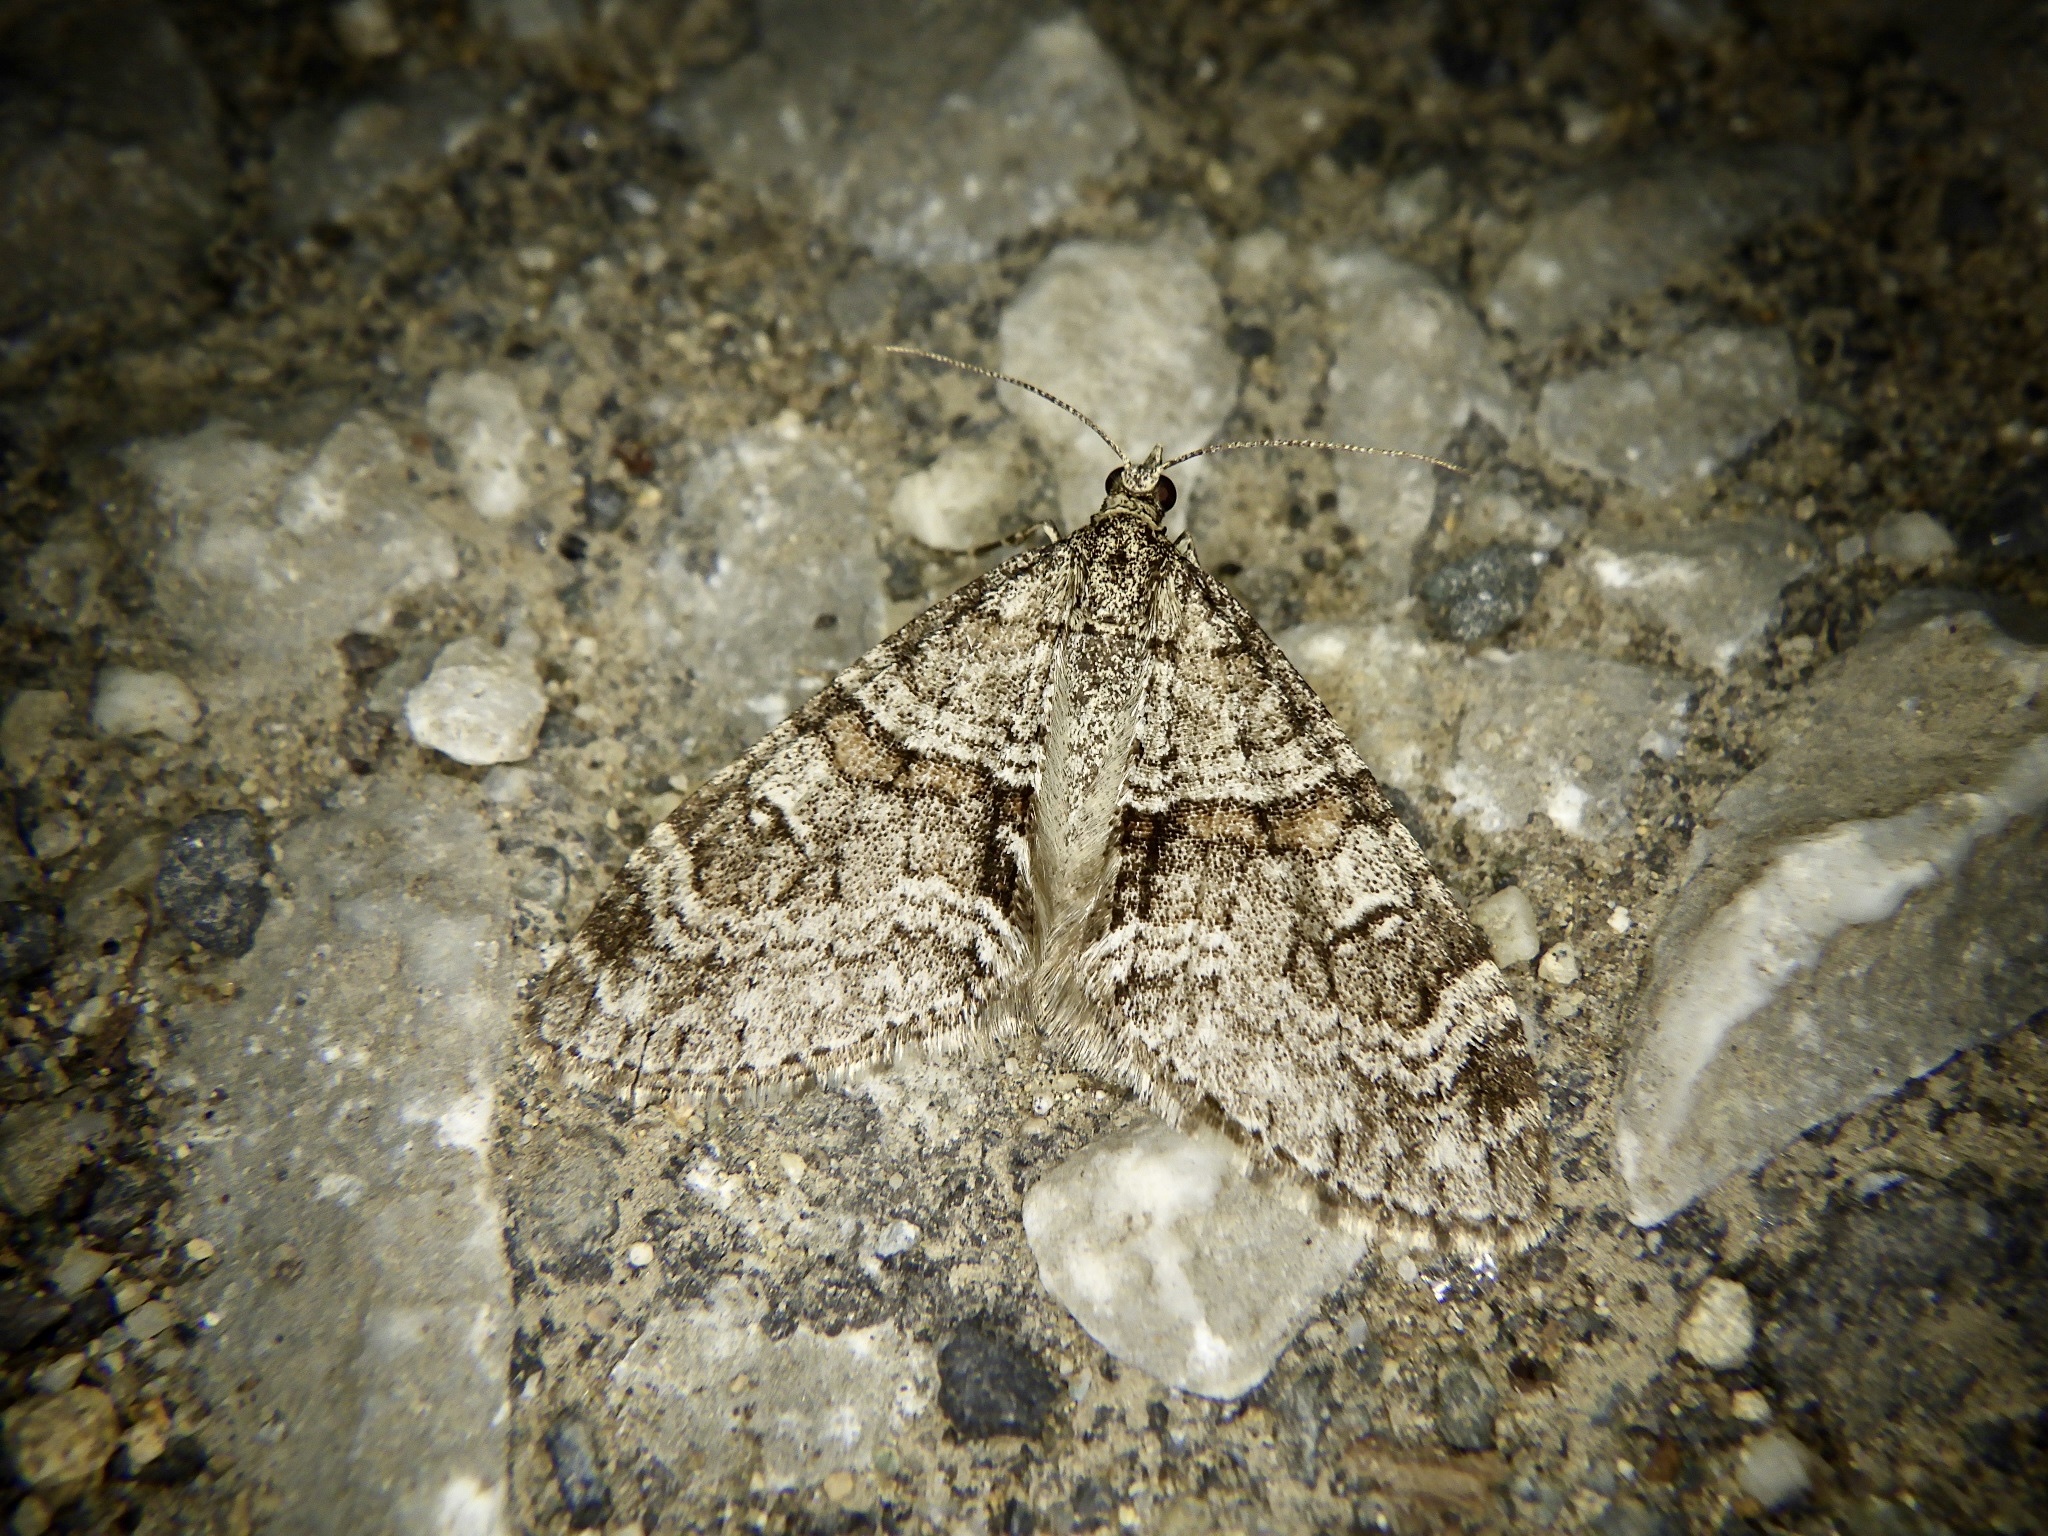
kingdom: Animalia
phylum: Arthropoda
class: Insecta
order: Lepidoptera
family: Geometridae
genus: Trichopteryx
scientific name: Trichopteryx terranea
